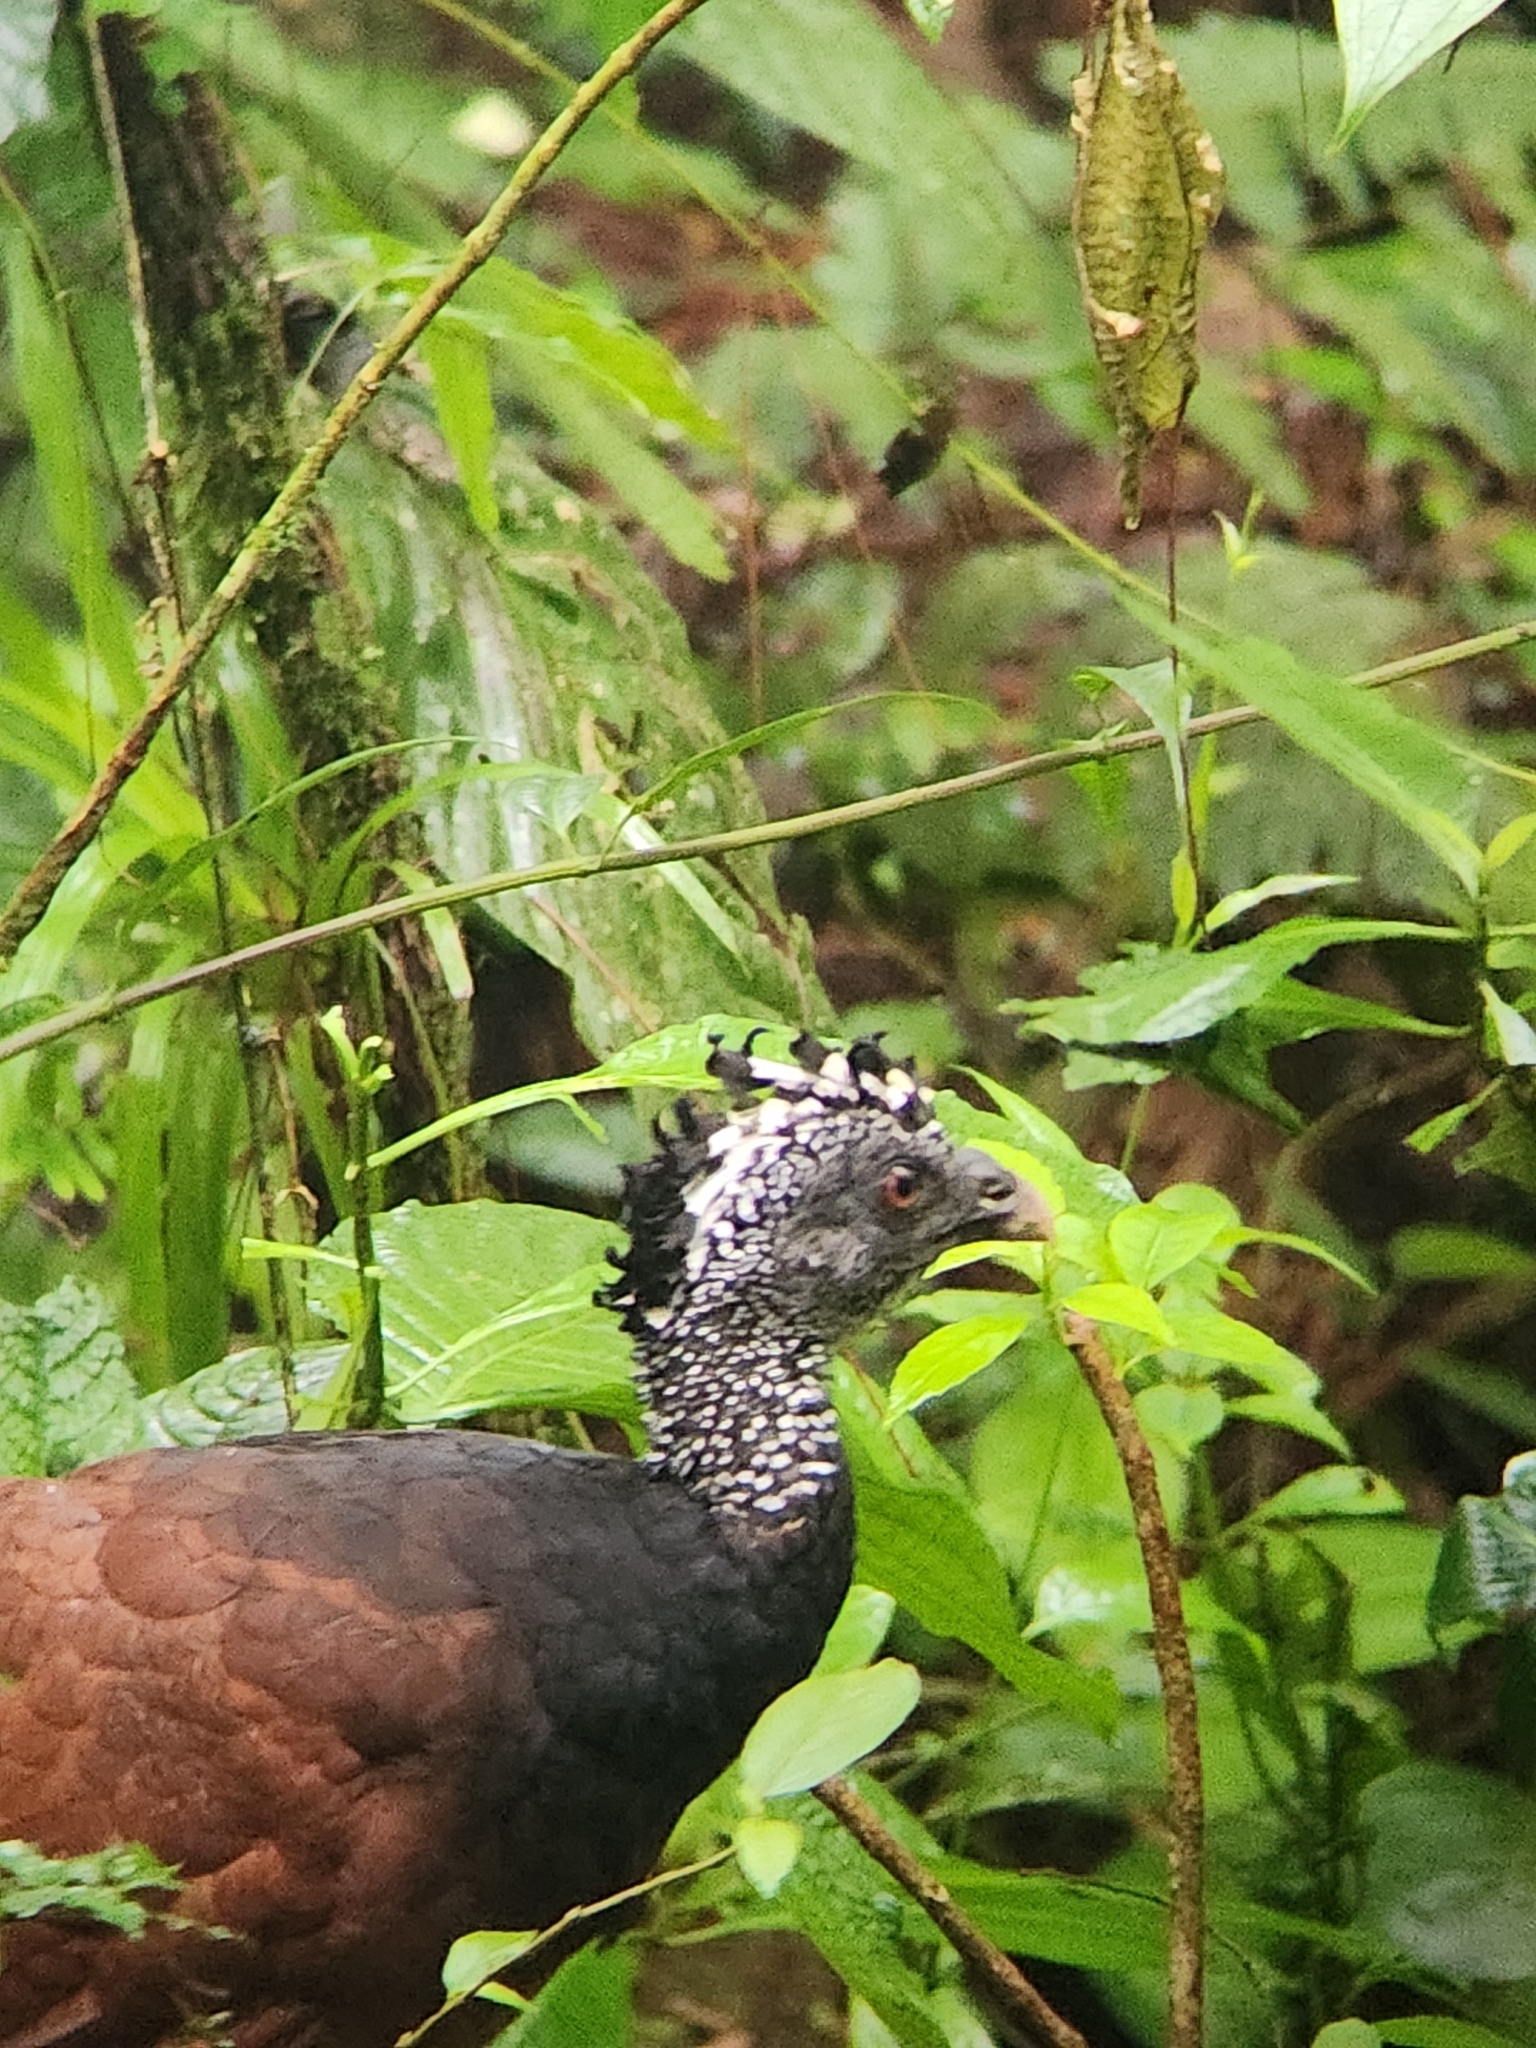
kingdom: Animalia
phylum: Chordata
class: Aves
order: Galliformes
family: Cracidae
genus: Crax
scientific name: Crax rubra
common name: Great curassow
